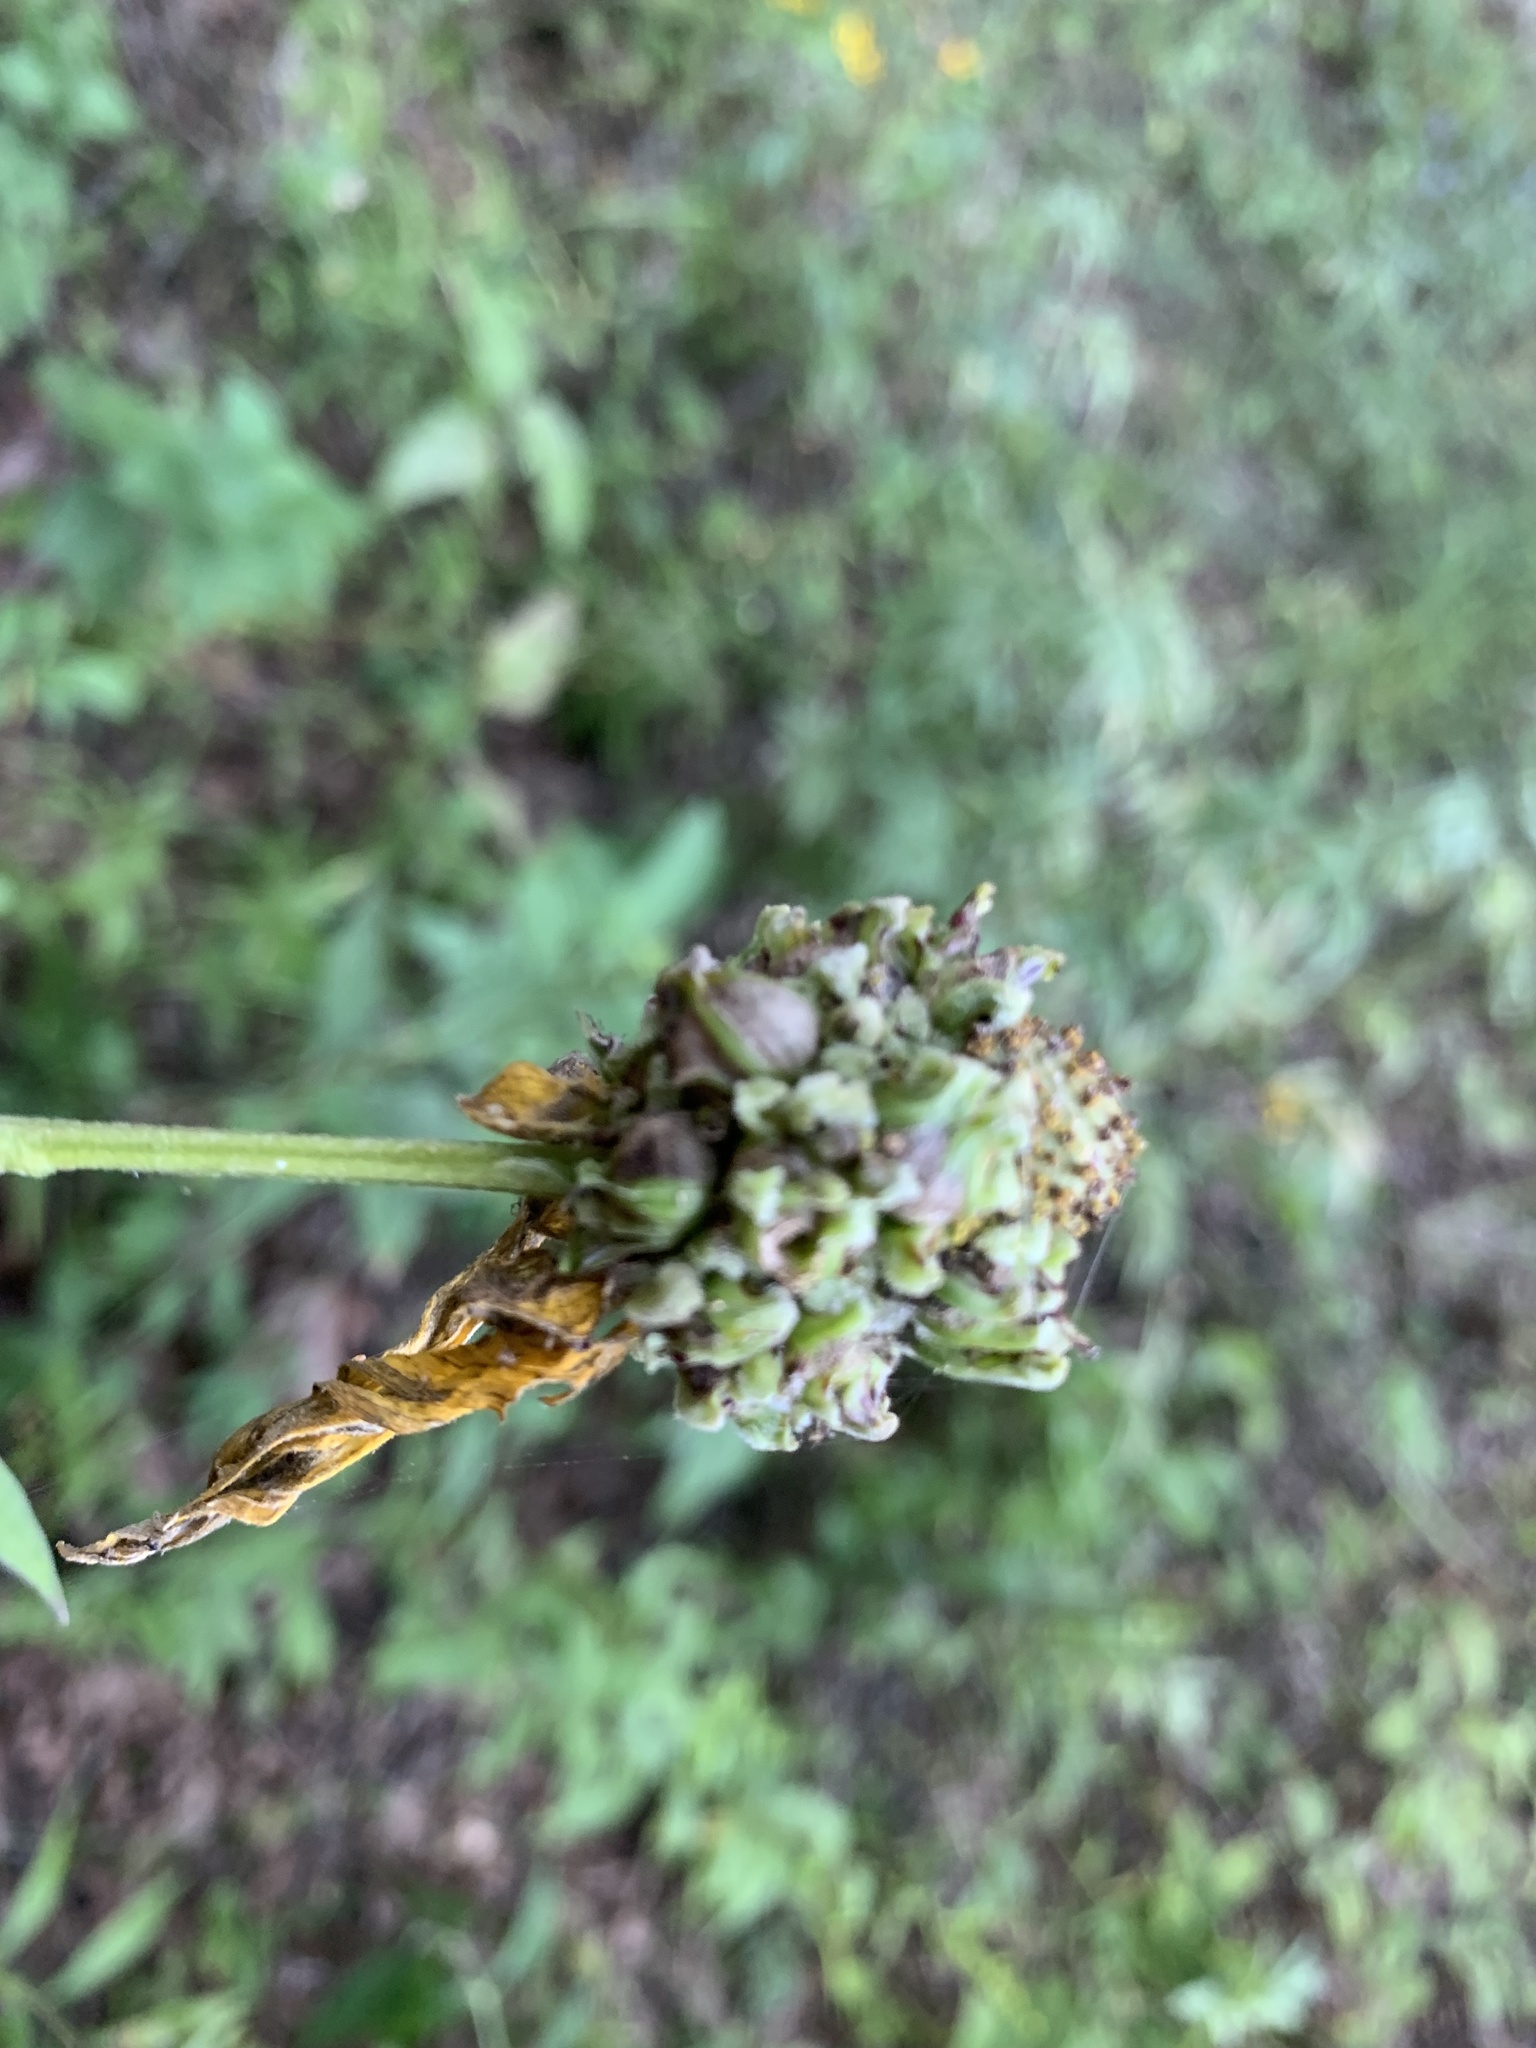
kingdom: Animalia
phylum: Arthropoda
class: Insecta
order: Diptera
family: Cecidomyiidae
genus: Asphondylia
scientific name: Asphondylia ratibidae
